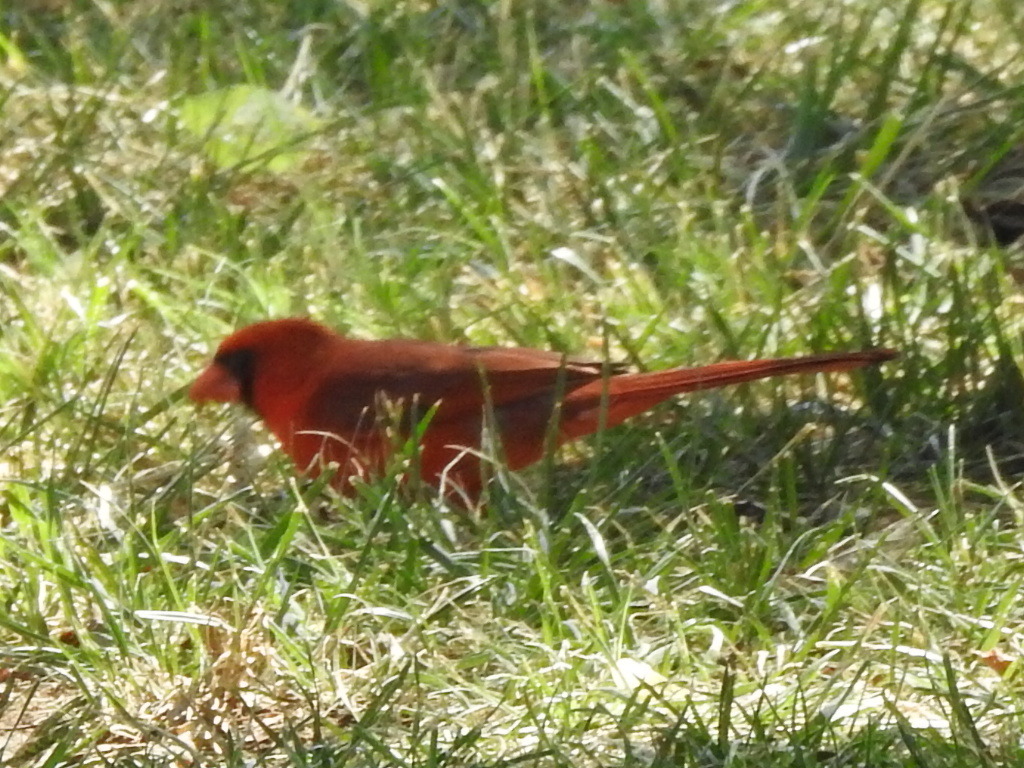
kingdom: Animalia
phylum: Chordata
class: Aves
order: Passeriformes
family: Cardinalidae
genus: Cardinalis
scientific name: Cardinalis cardinalis
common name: Northern cardinal
